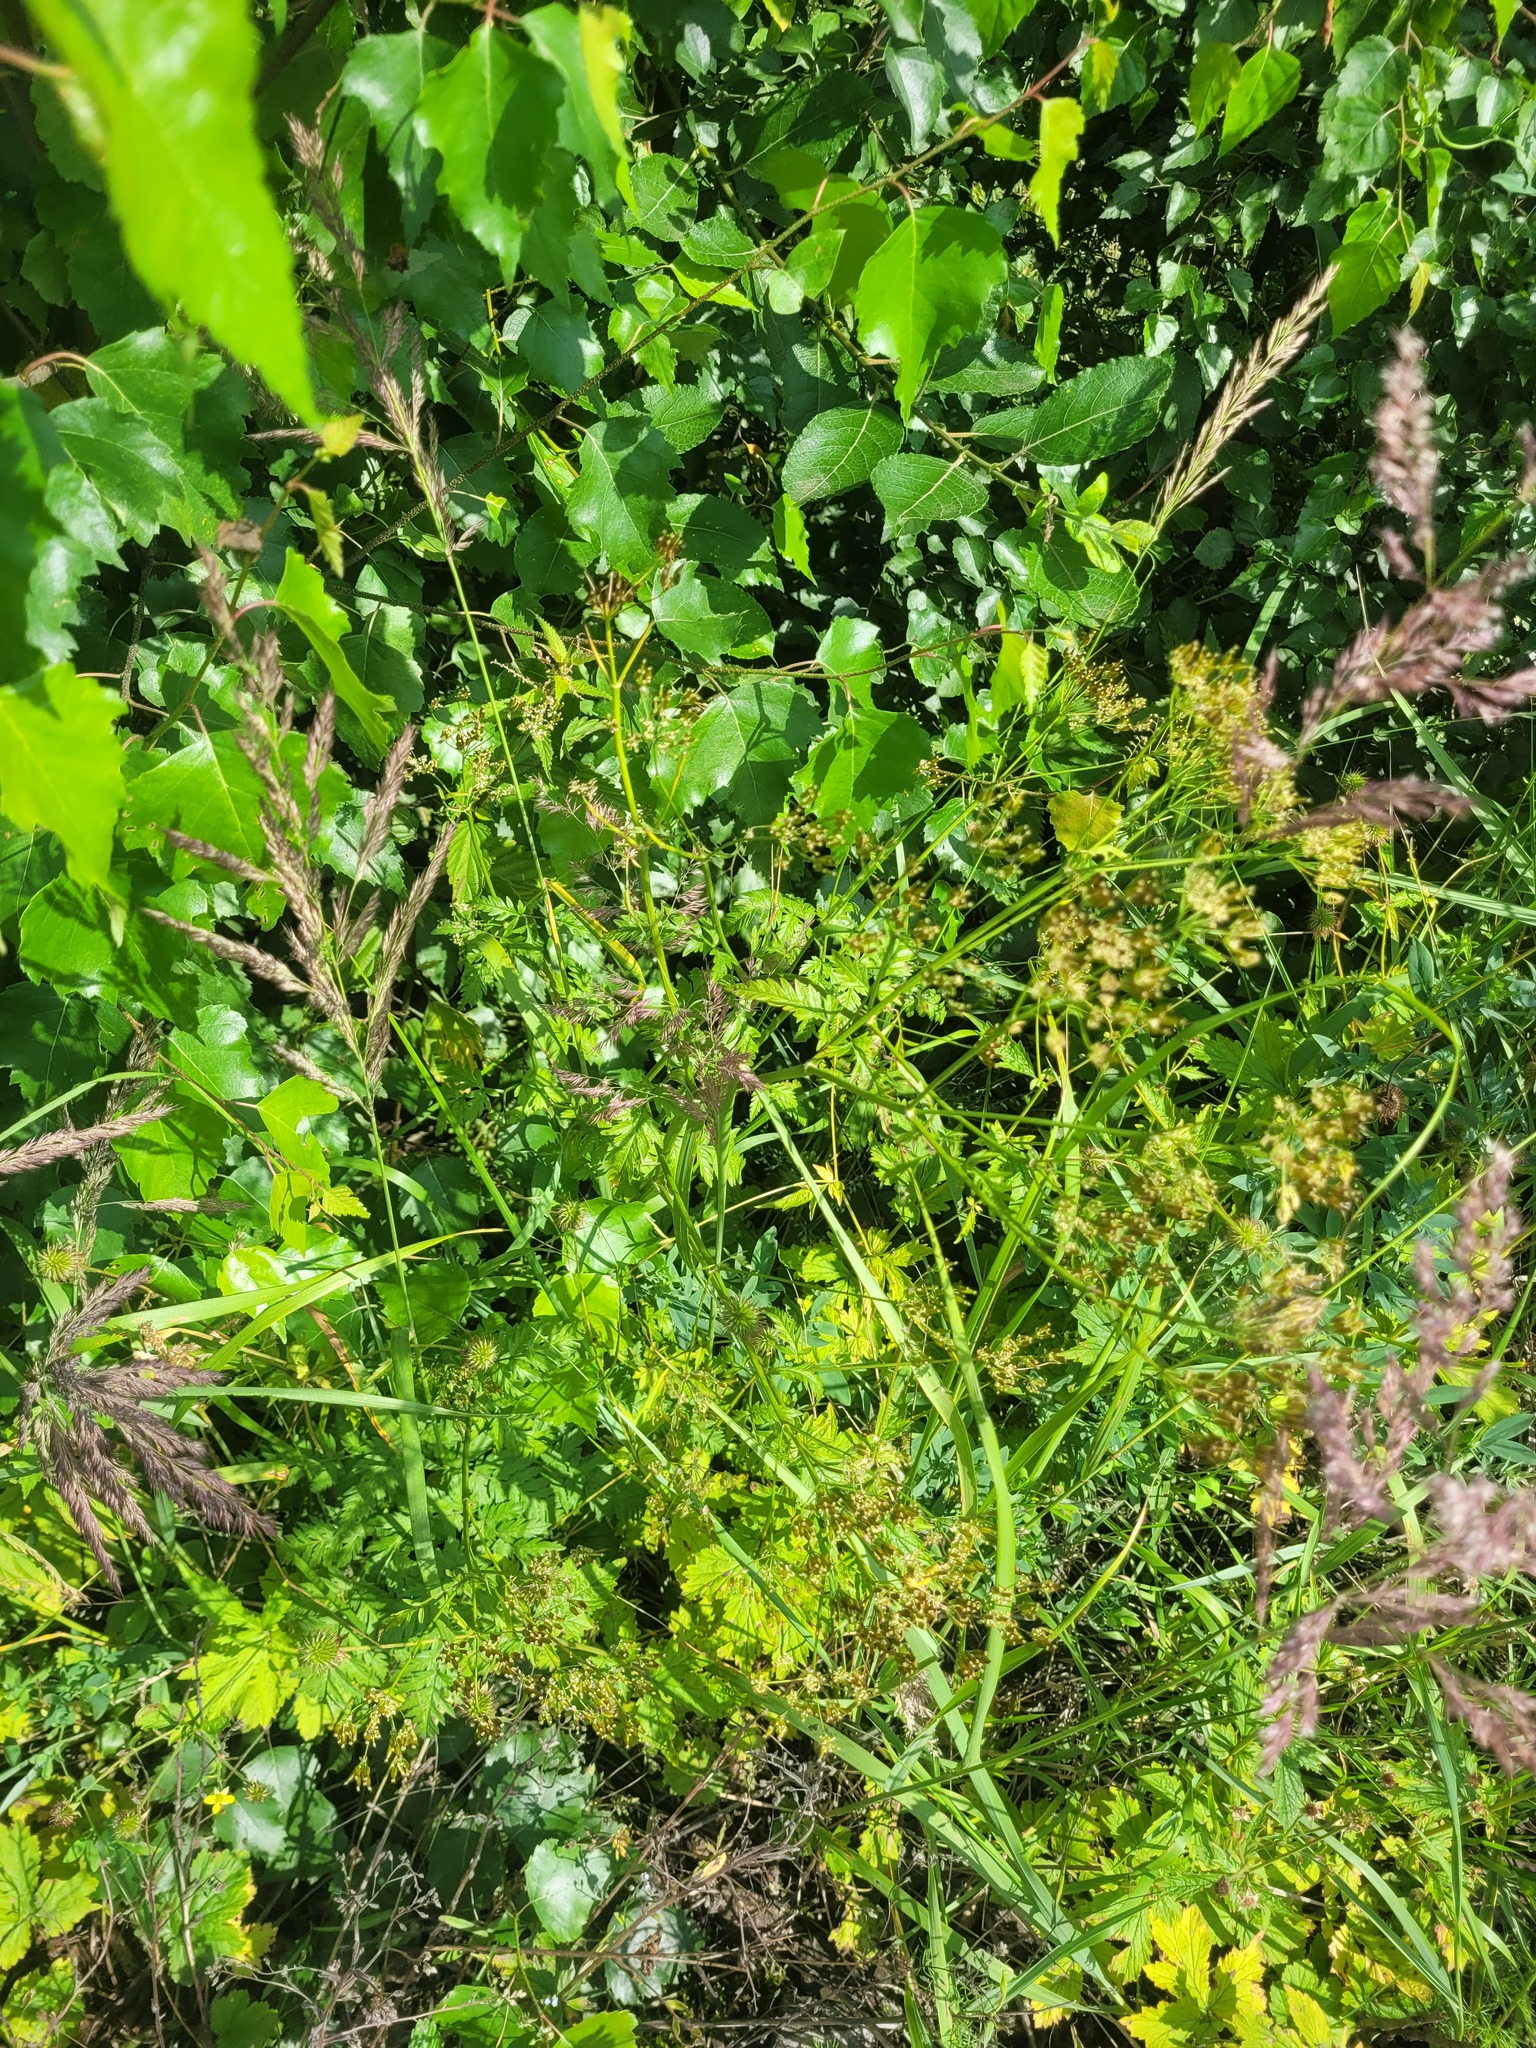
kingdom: Plantae
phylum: Tracheophyta
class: Magnoliopsida
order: Apiales
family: Apiaceae
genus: Anthriscus
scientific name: Anthriscus sylvestris
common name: Cow parsley
